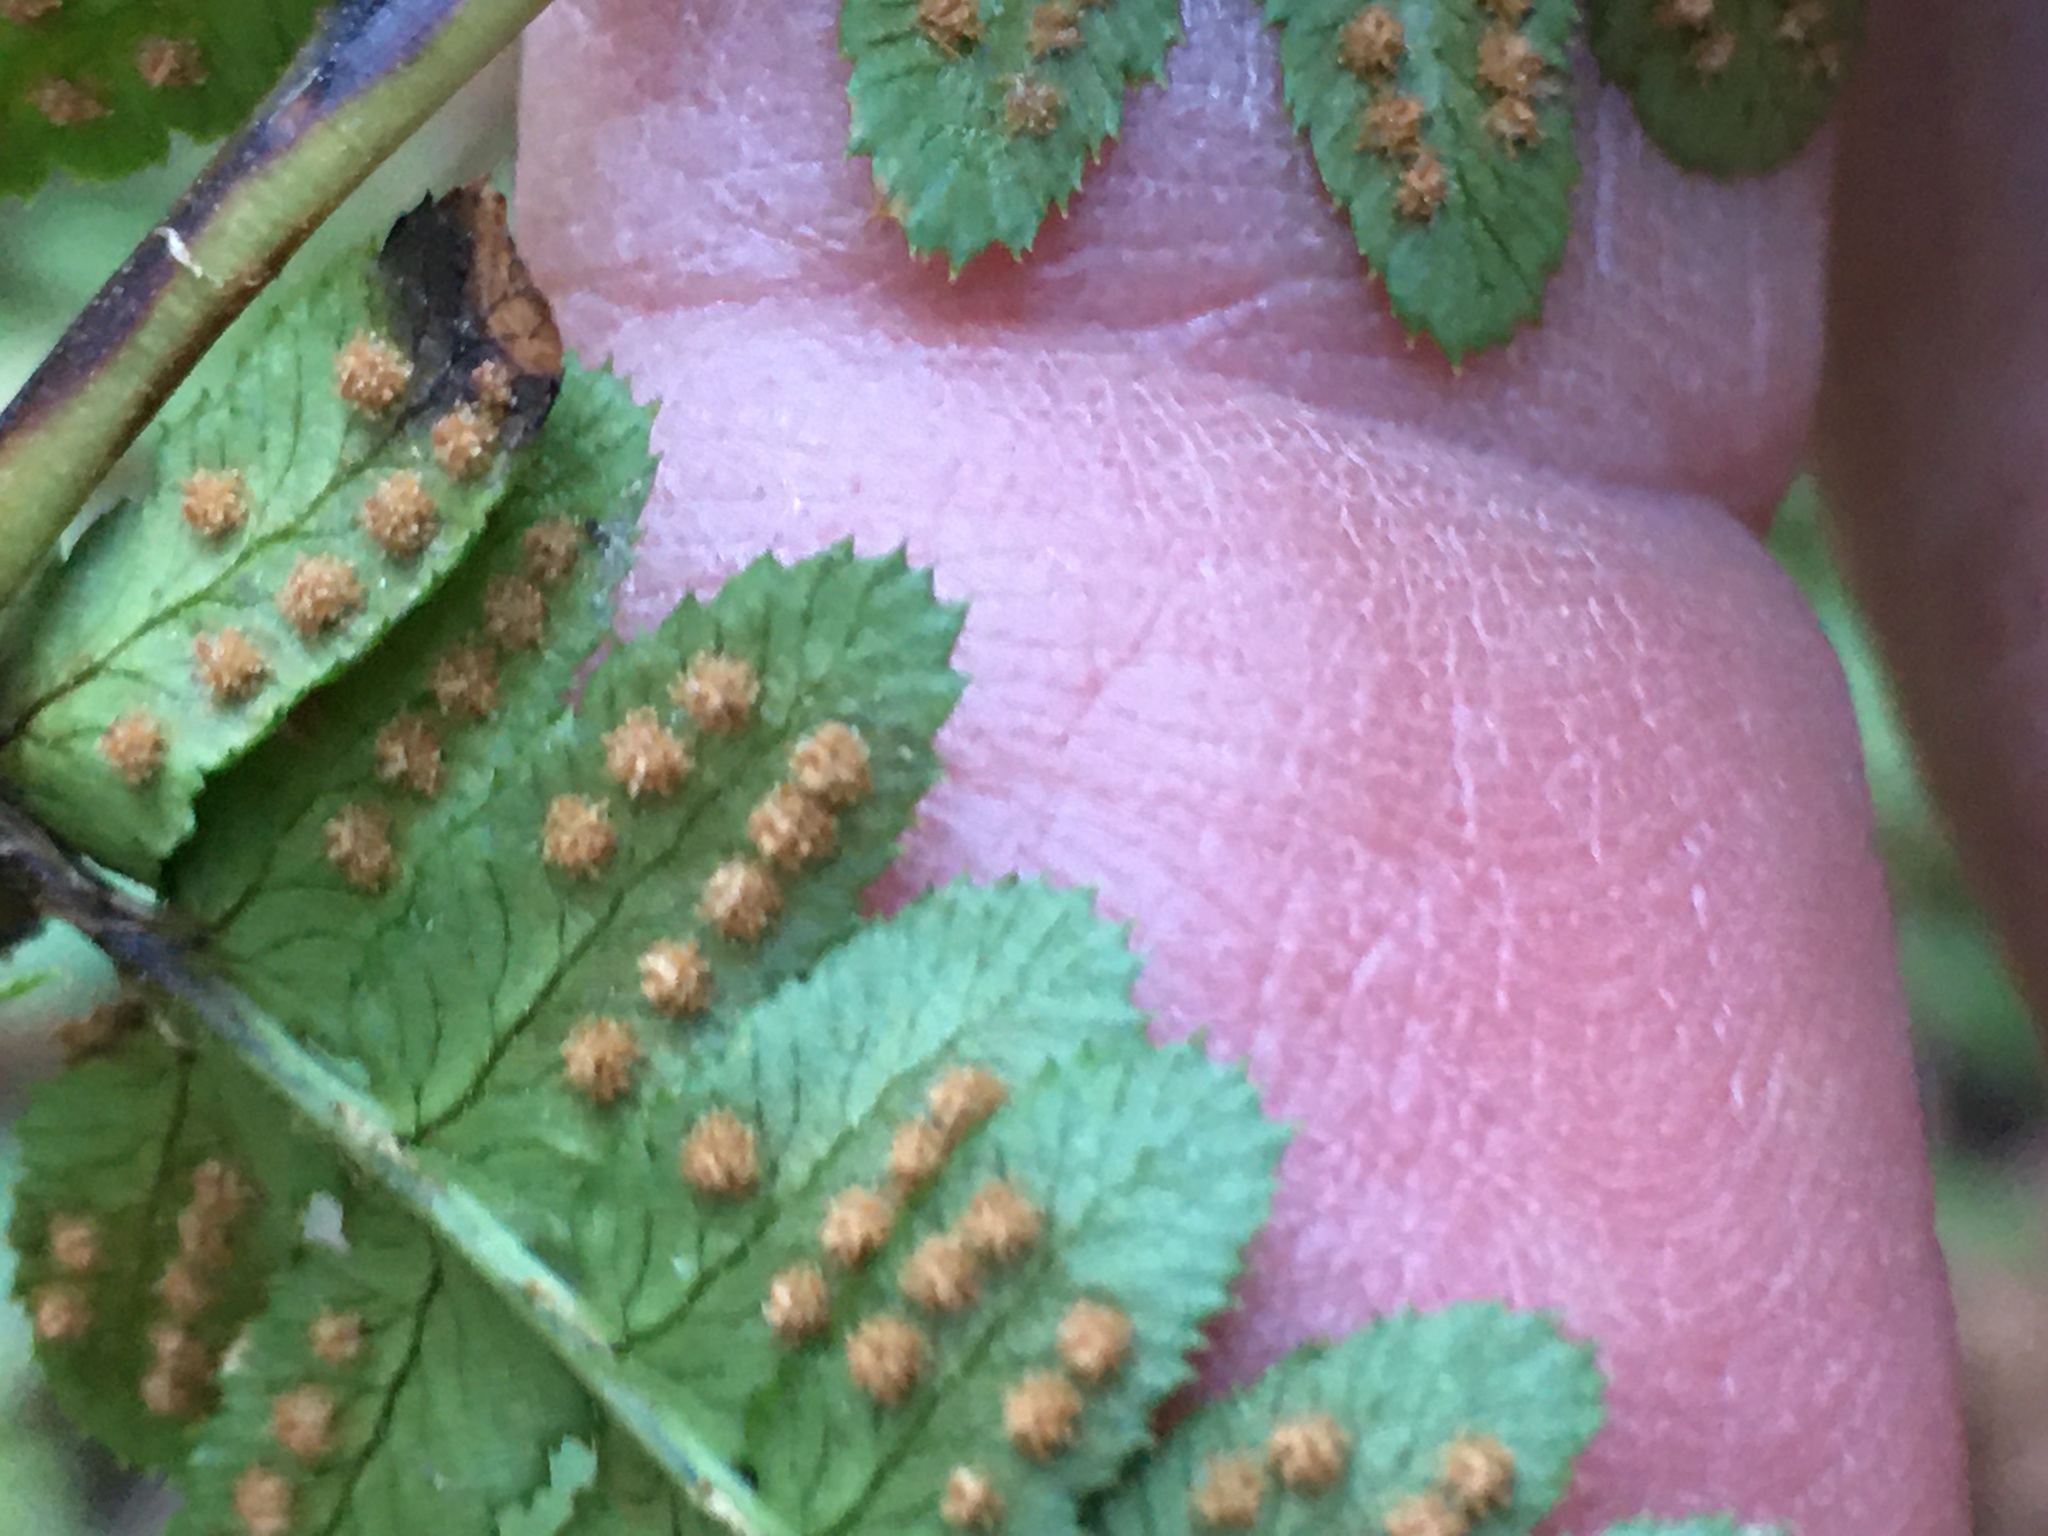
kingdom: Plantae
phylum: Tracheophyta
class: Polypodiopsida
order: Polypodiales
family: Dryopteridaceae
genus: Dryopteris
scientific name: Dryopteris arguta
